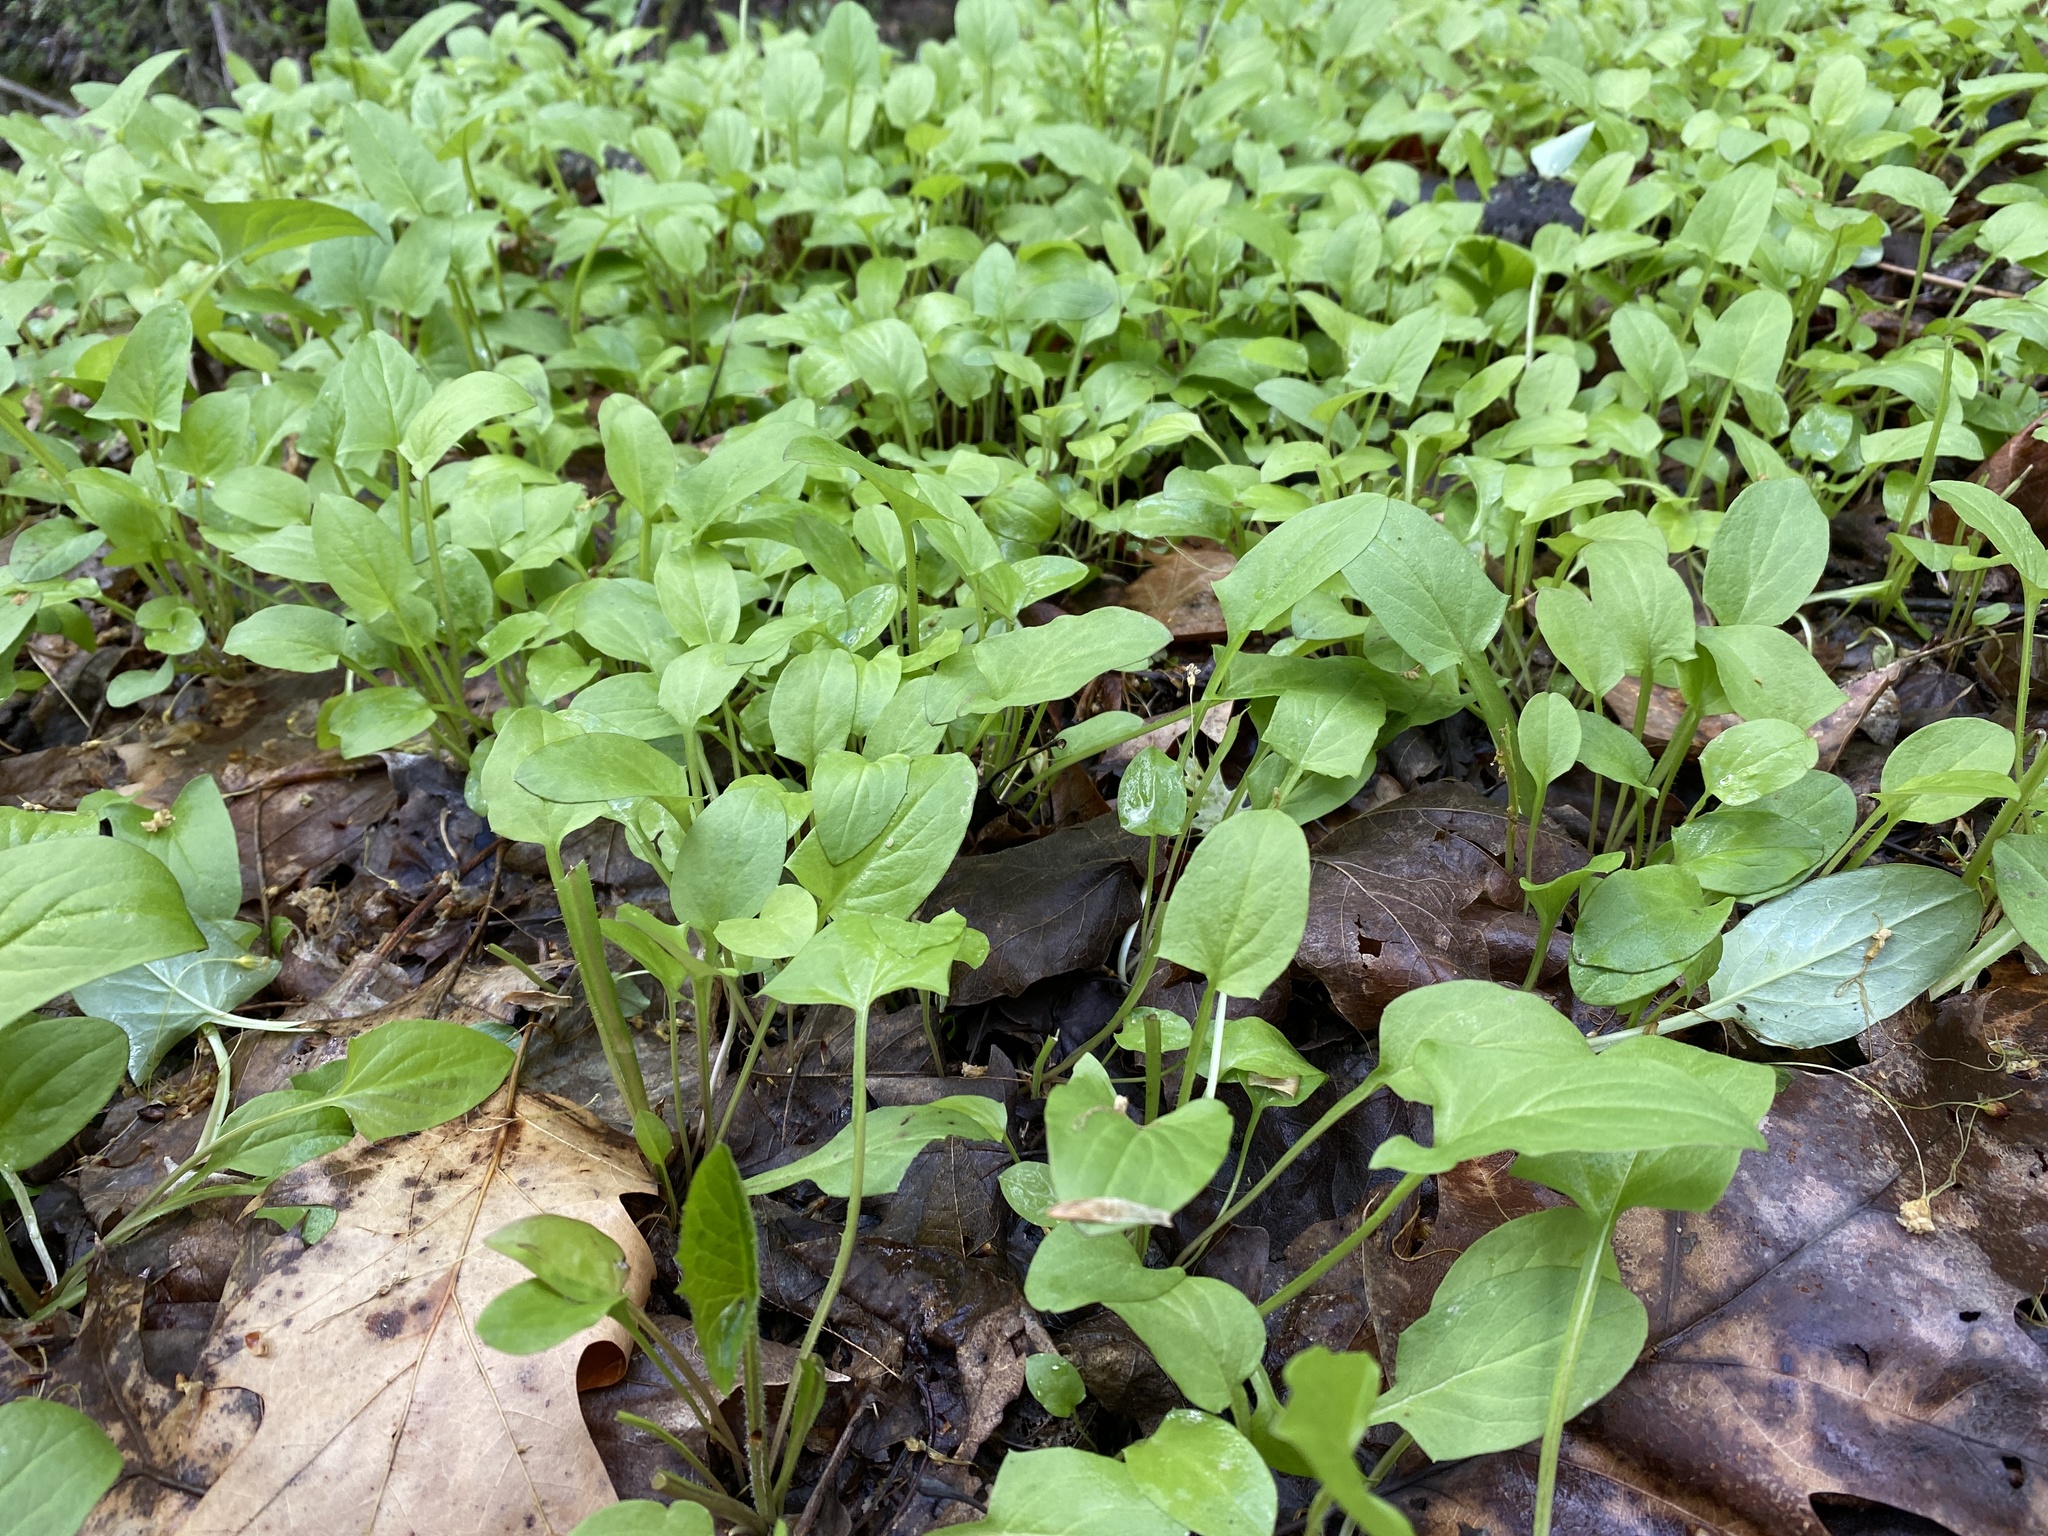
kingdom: Plantae
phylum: Tracheophyta
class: Magnoliopsida
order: Asterales
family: Asteraceae
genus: Nabalus
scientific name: Nabalus crepidineus
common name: Nodding rattlesnakeroot
